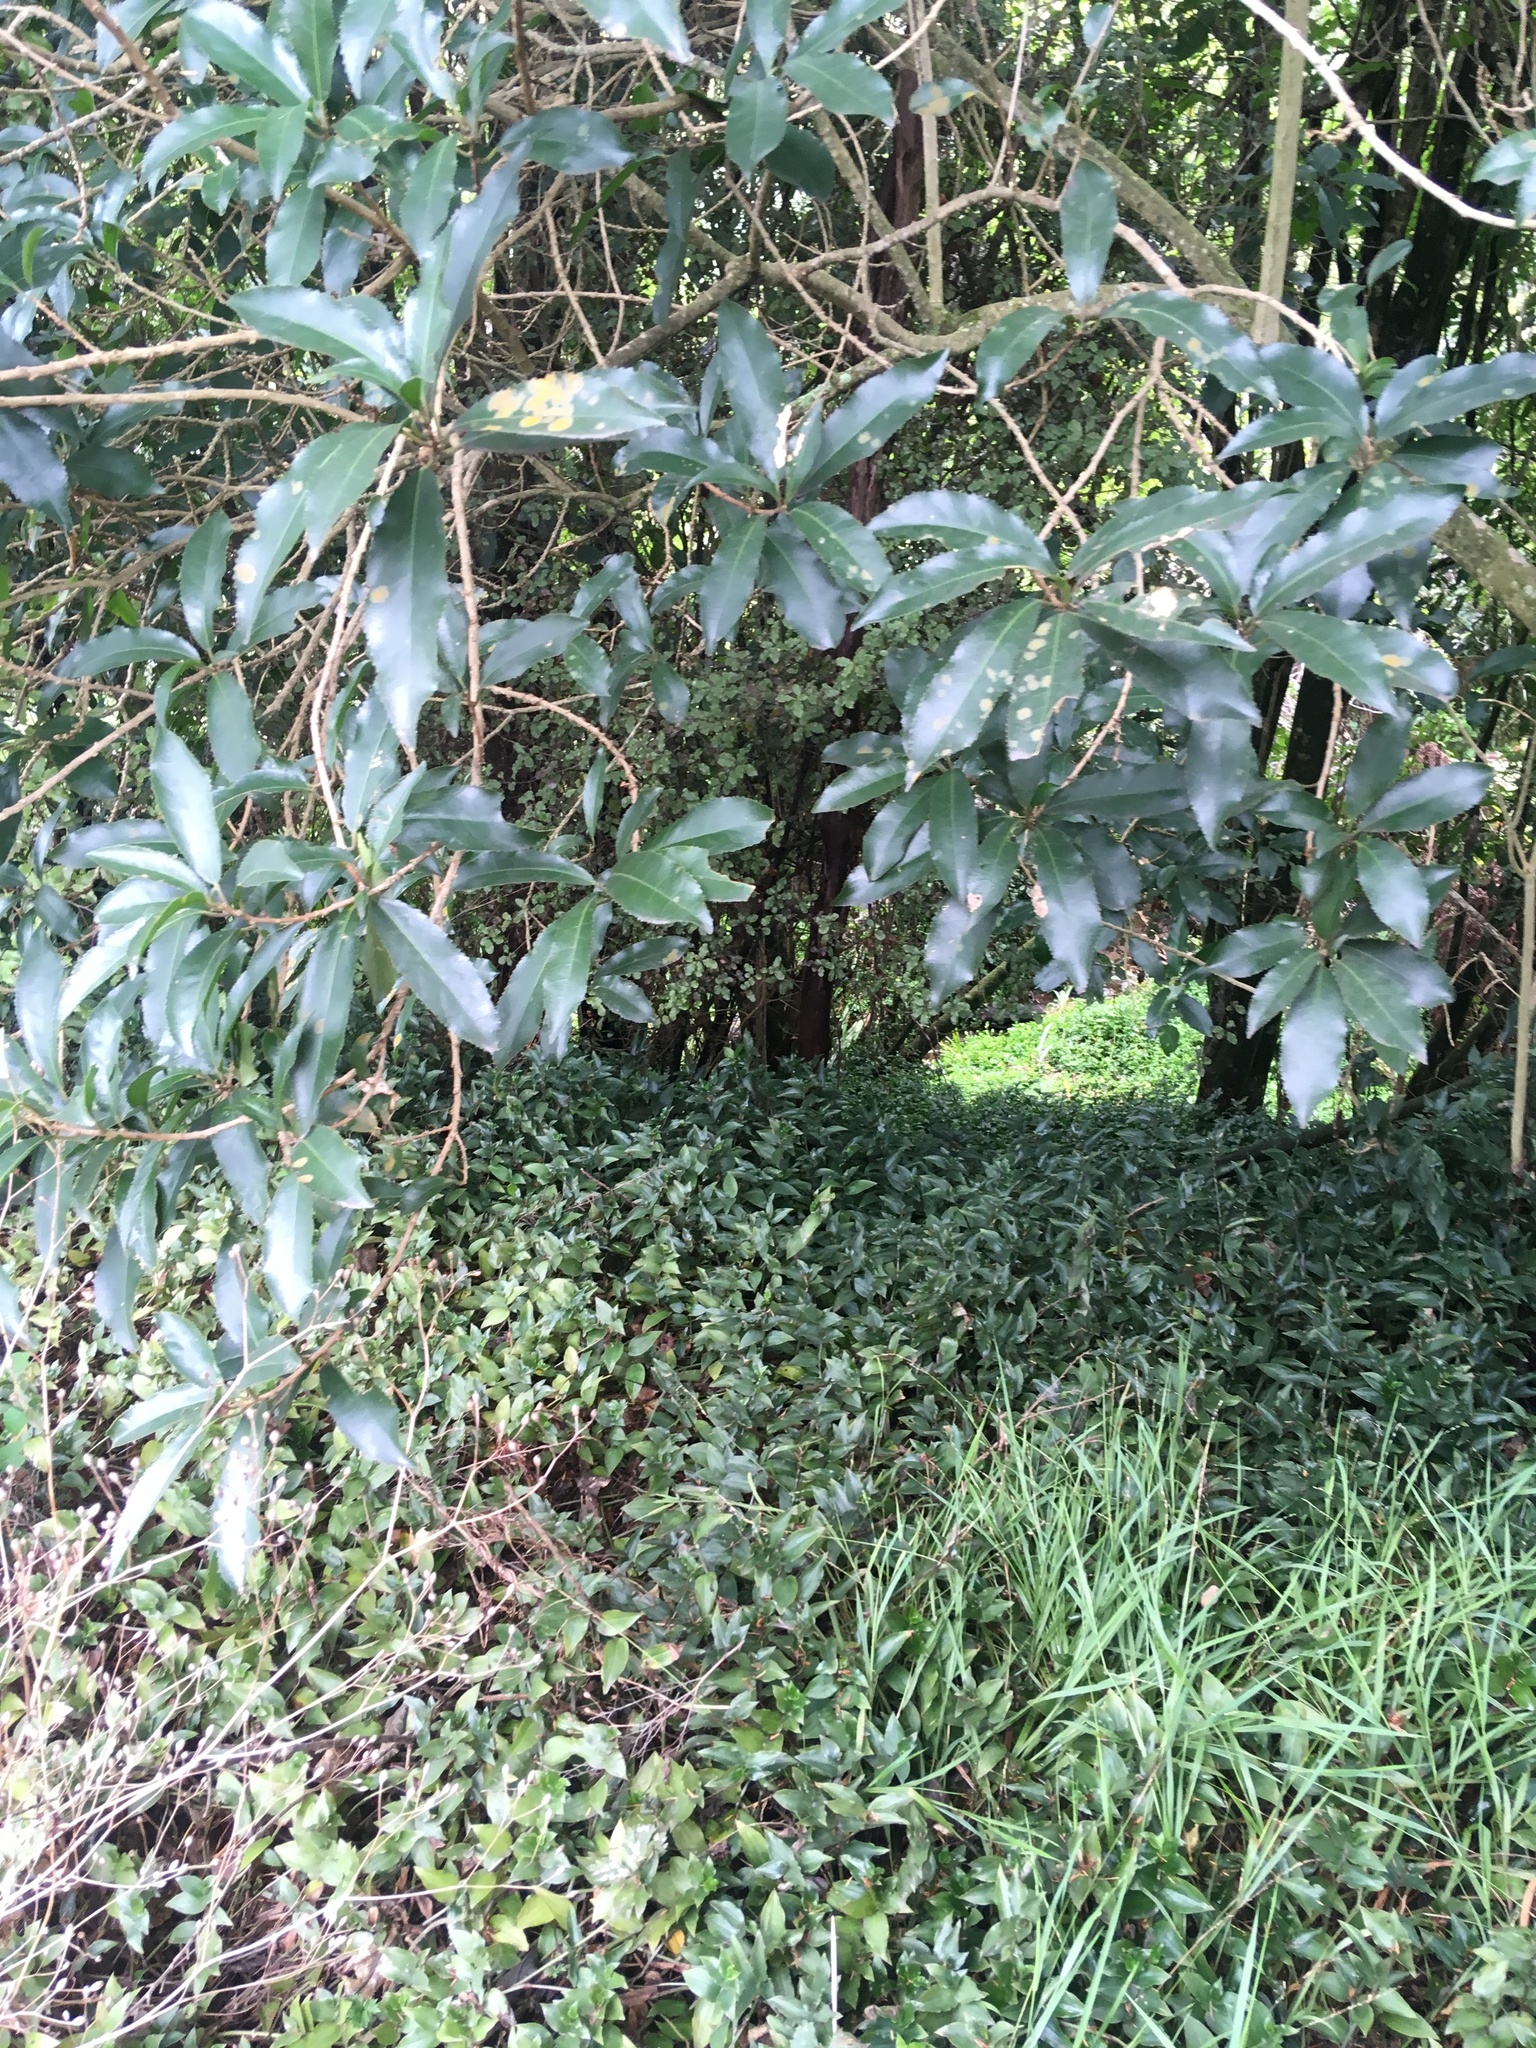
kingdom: Plantae
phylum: Tracheophyta
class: Liliopsida
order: Commelinales
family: Commelinaceae
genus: Tradescantia
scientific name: Tradescantia fluminensis
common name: Wandering-jew
